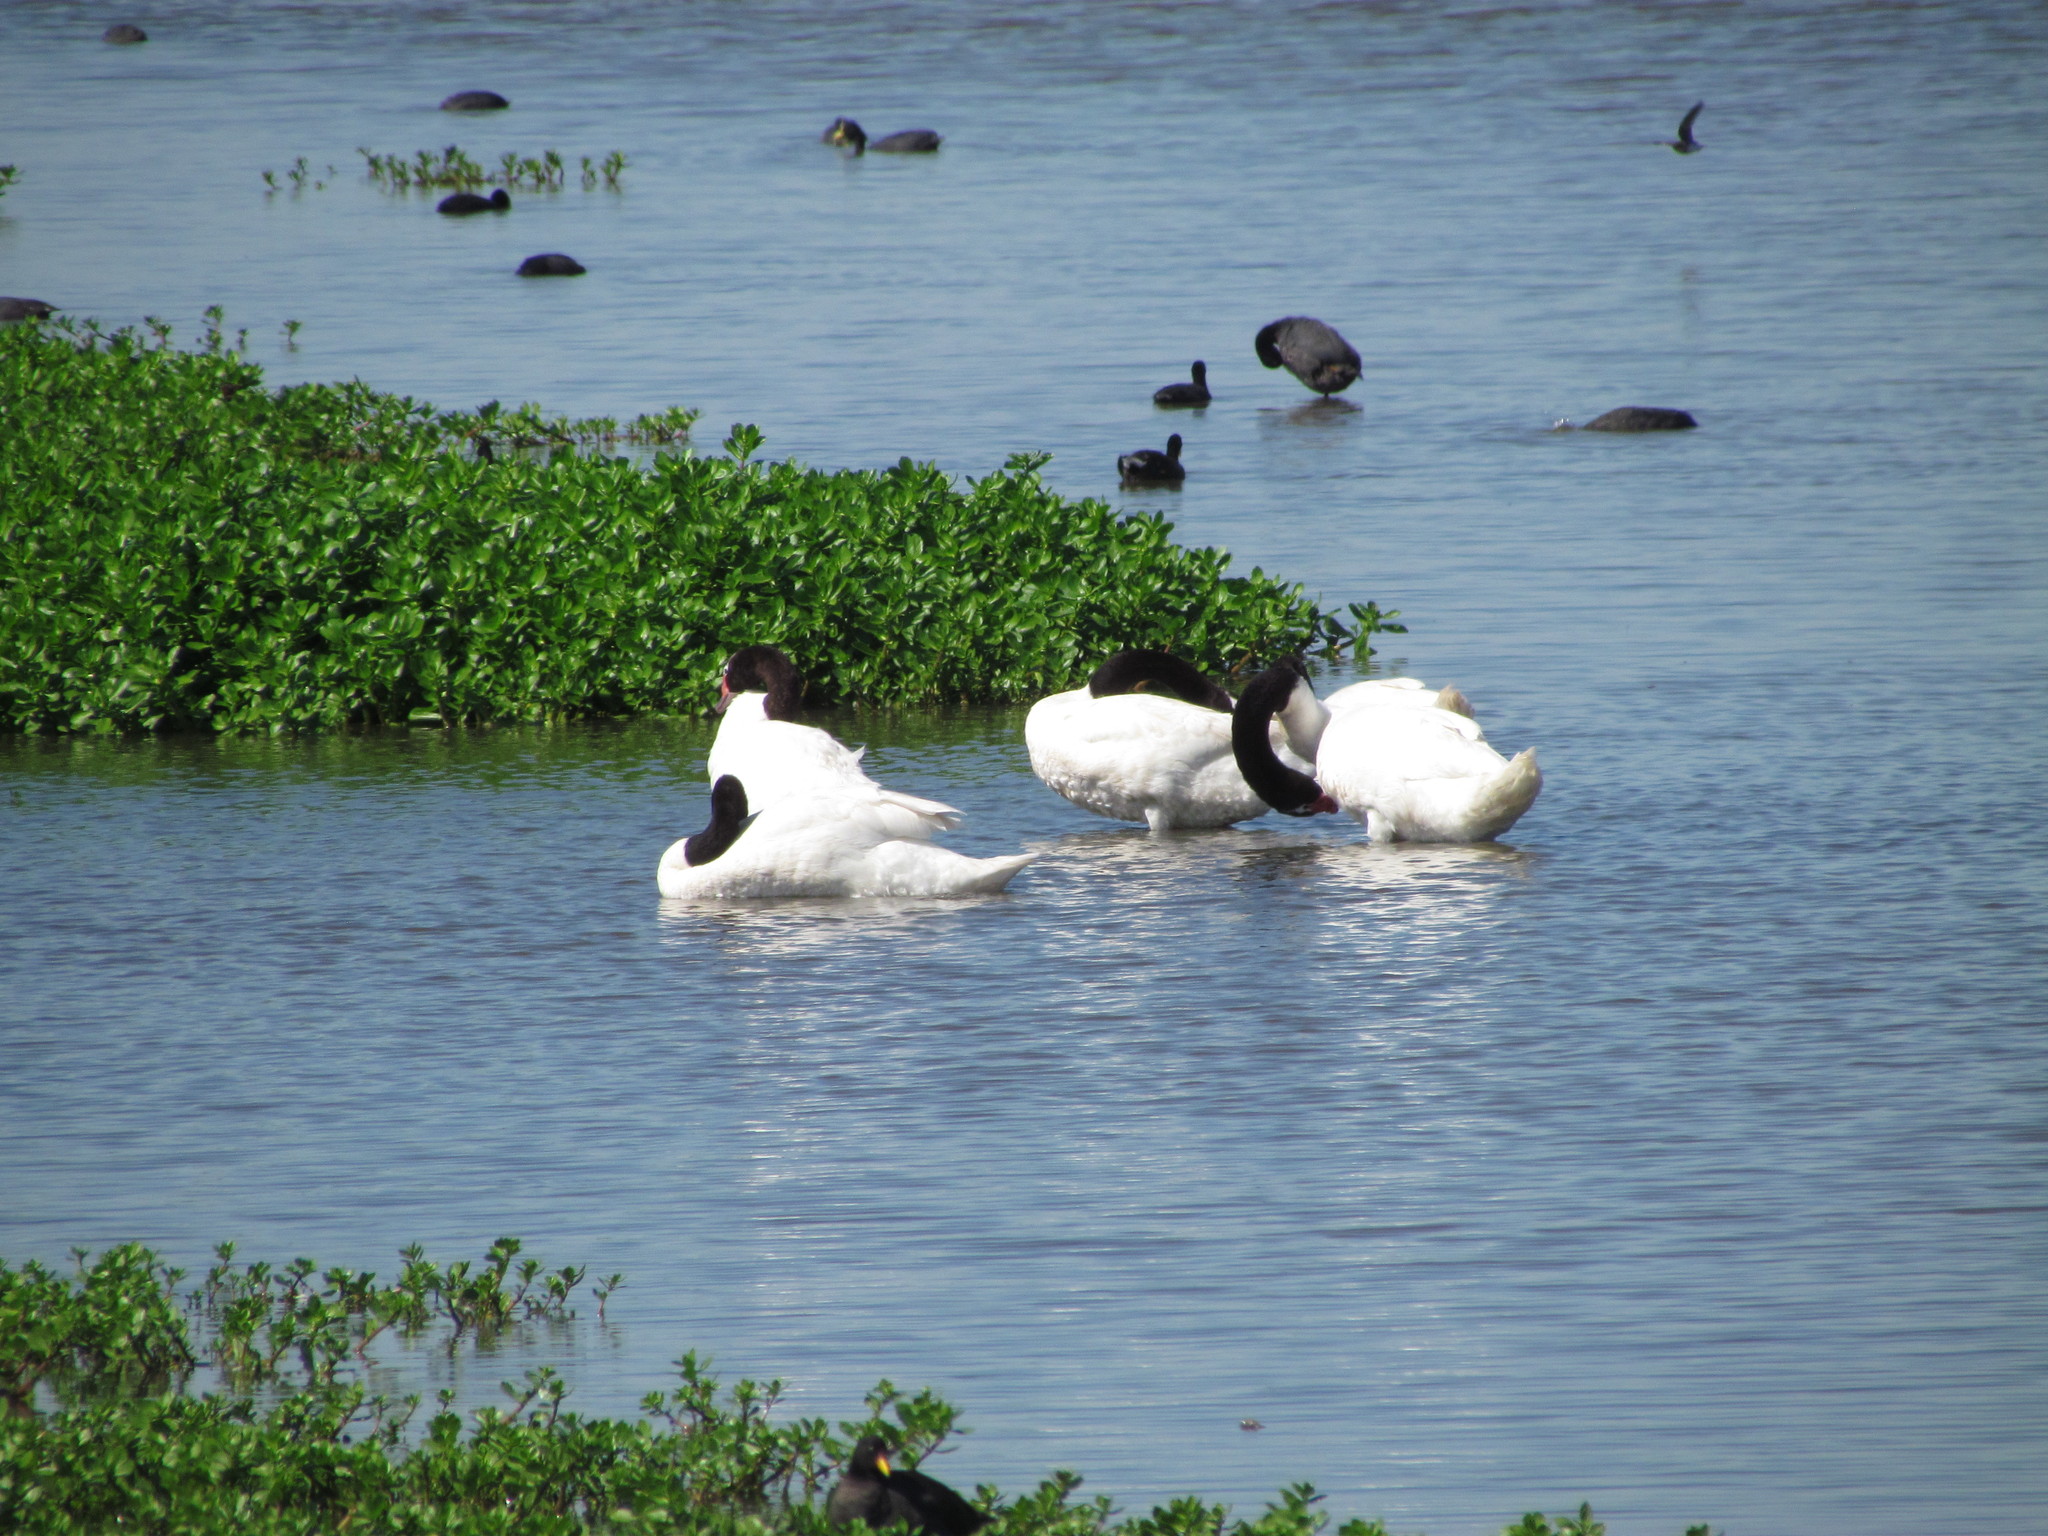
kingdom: Animalia
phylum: Chordata
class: Aves
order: Anseriformes
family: Anatidae
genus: Cygnus
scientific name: Cygnus melancoryphus
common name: Black-necked swan
